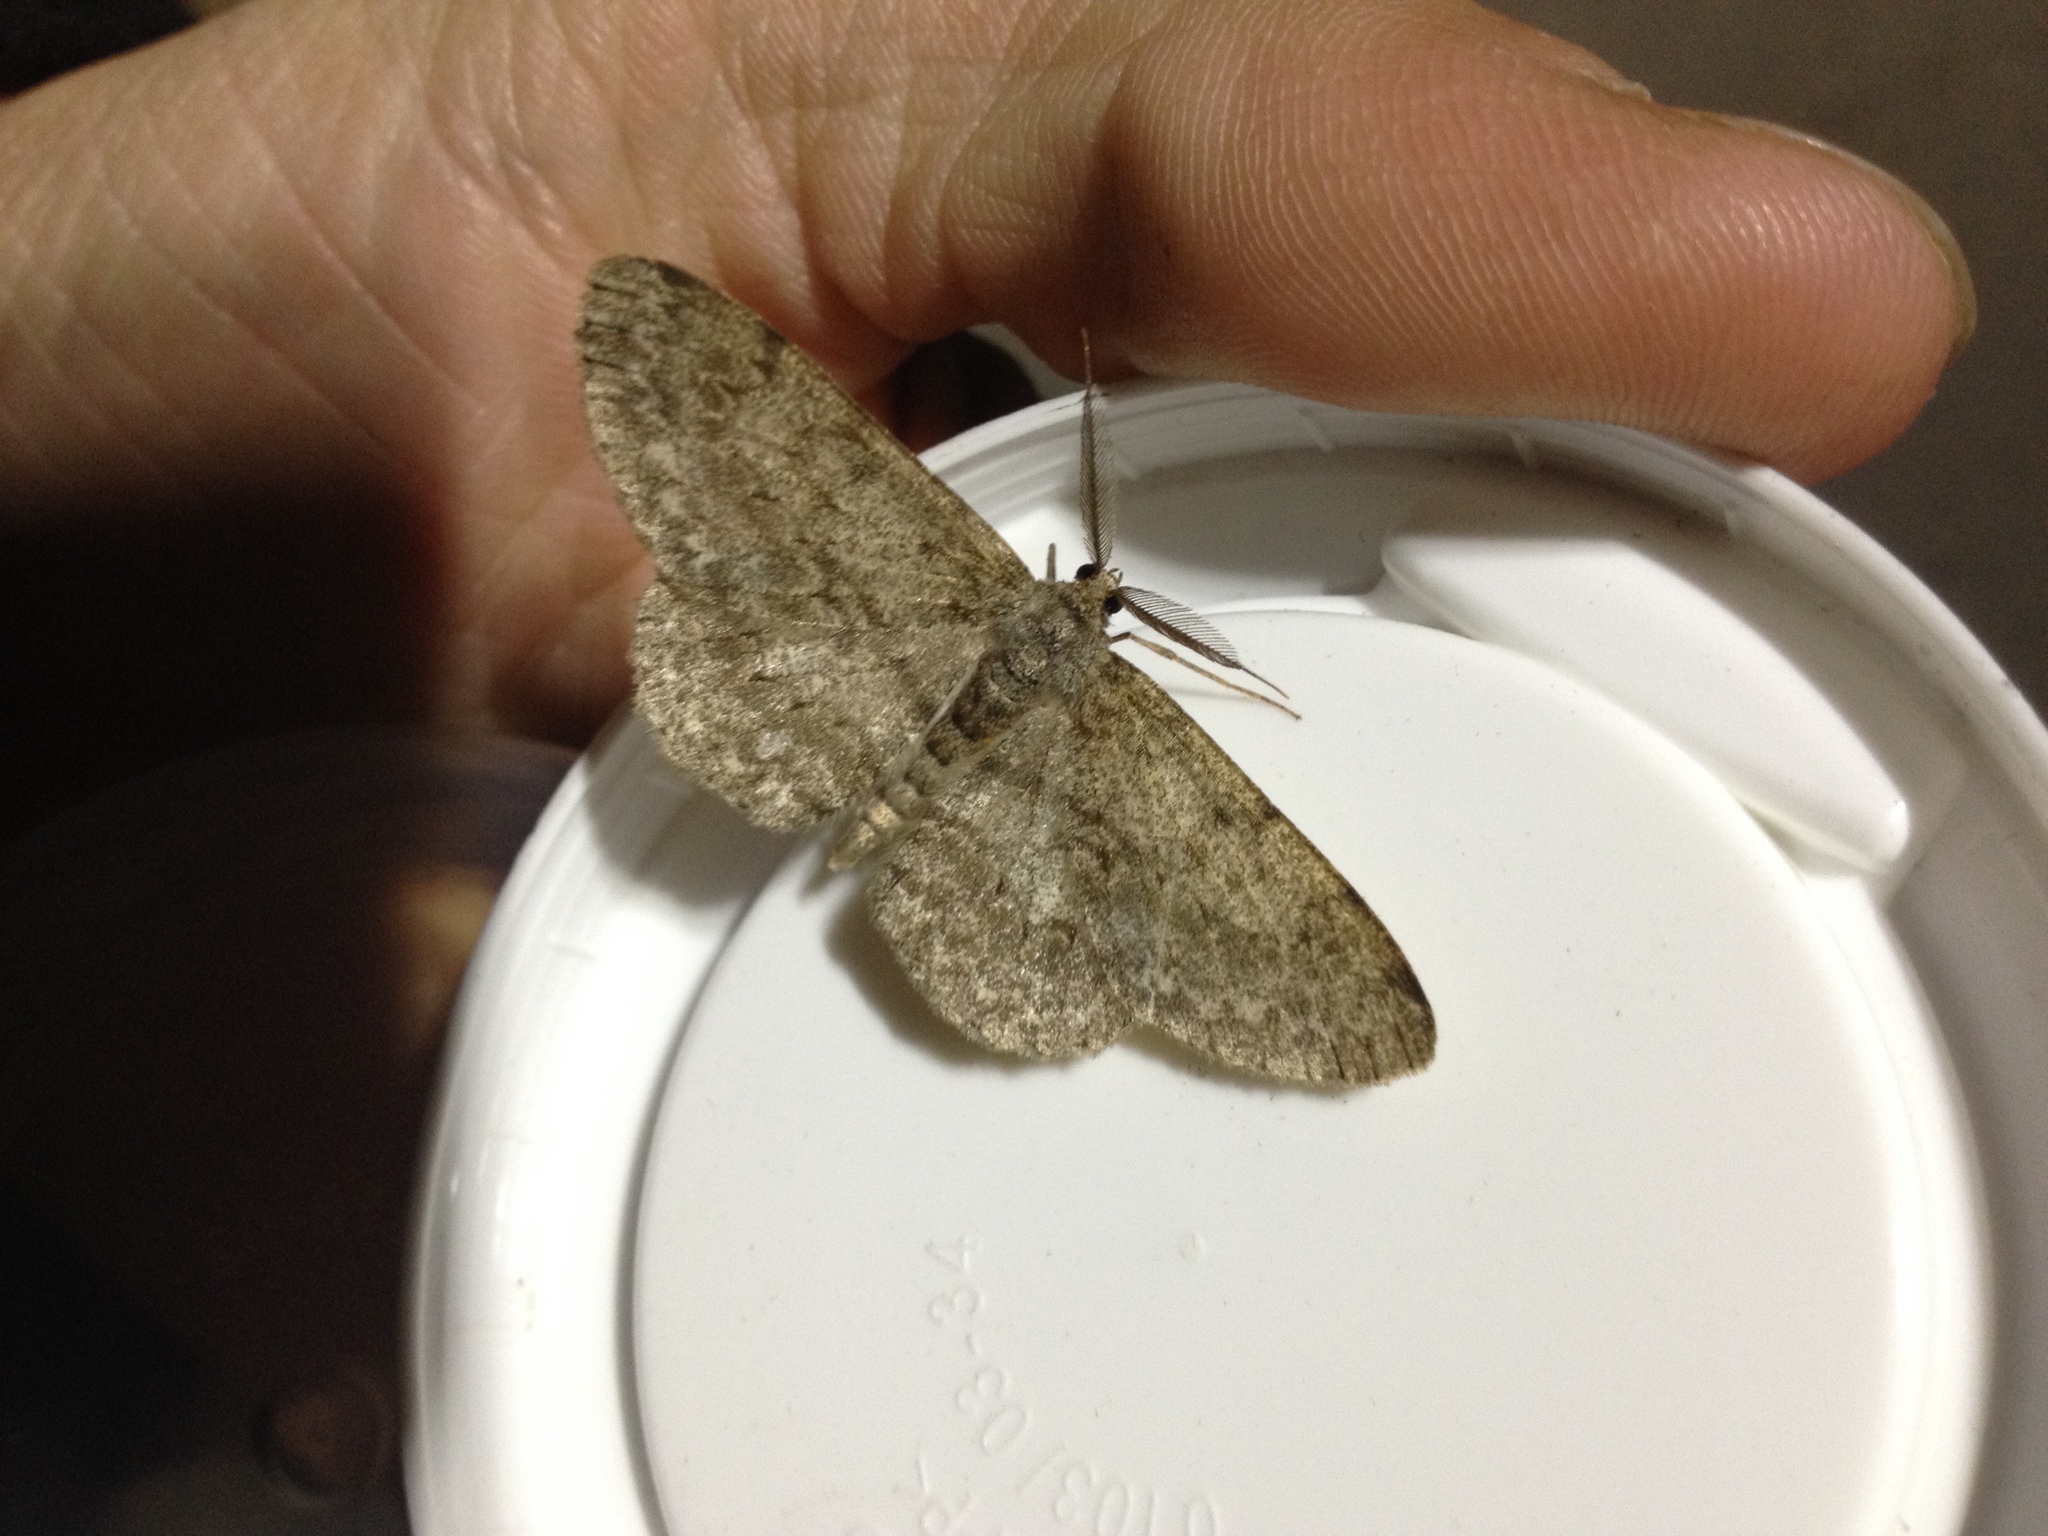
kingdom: Animalia
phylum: Arthropoda
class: Insecta
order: Lepidoptera
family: Geometridae
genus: Hypomecis
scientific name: Hypomecis punctinalis
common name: Pale oak beauty
